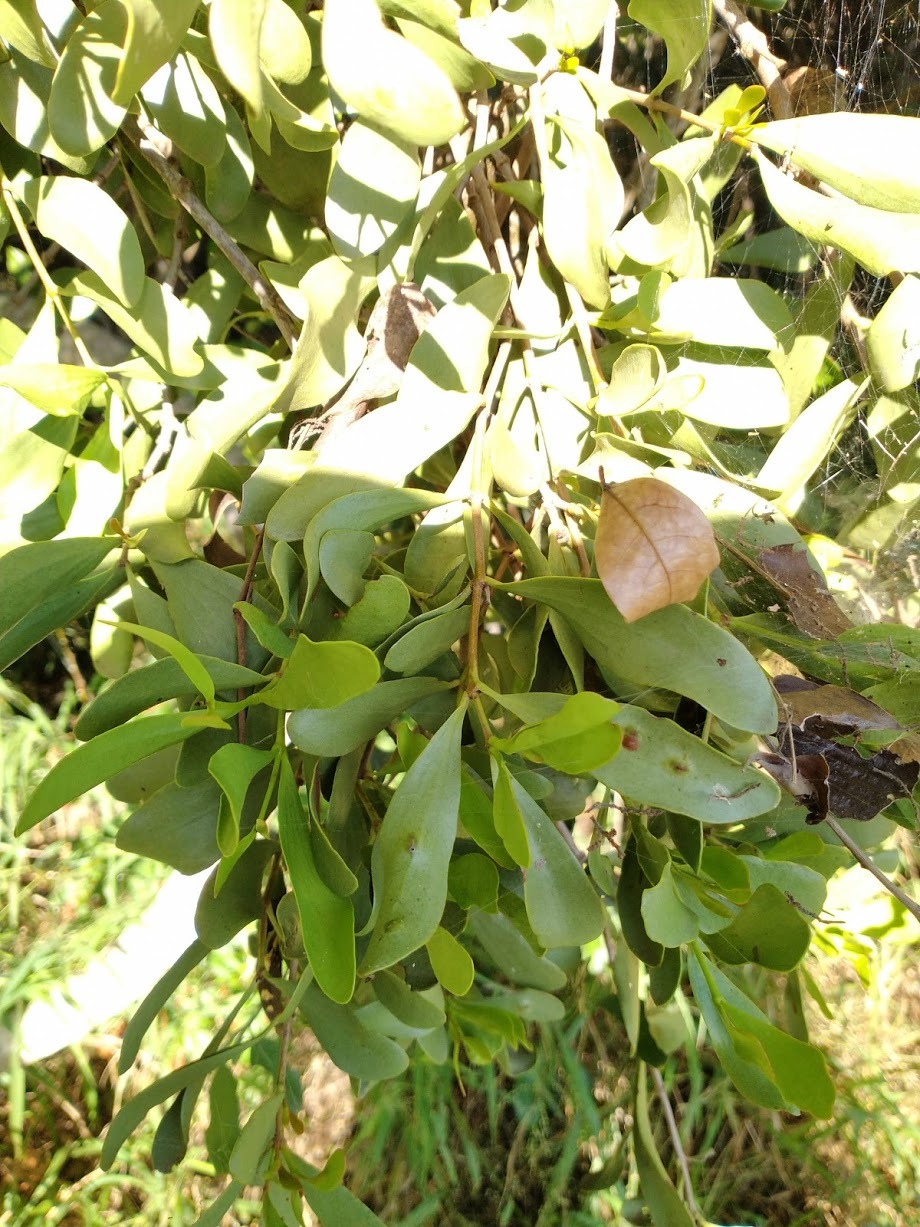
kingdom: Plantae
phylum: Tracheophyta
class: Magnoliopsida
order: Santalales
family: Loranthaceae
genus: Amyema
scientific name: Amyema congener
